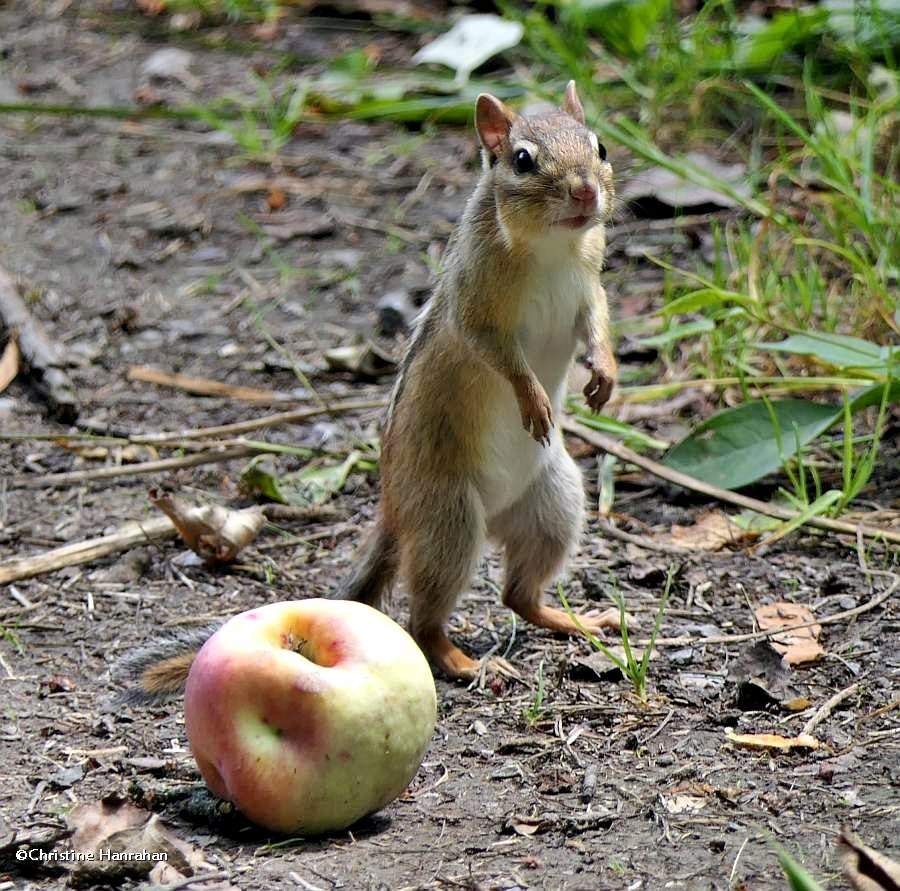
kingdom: Animalia
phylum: Chordata
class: Mammalia
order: Rodentia
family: Sciuridae
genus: Tamias
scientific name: Tamias striatus
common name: Eastern chipmunk
